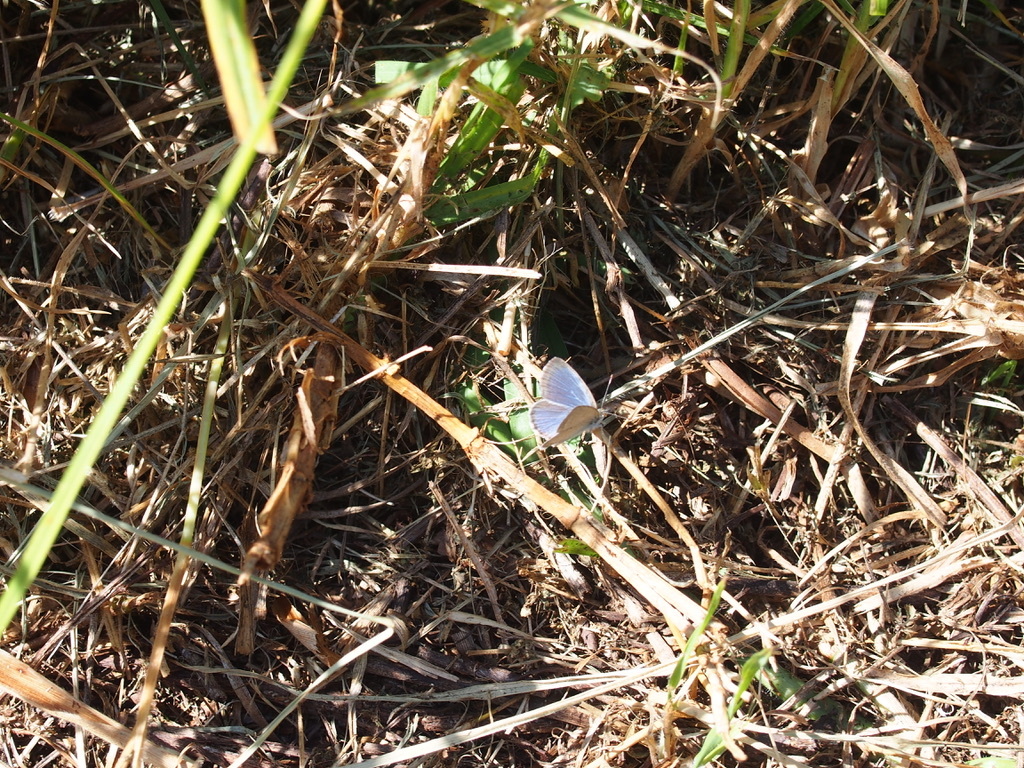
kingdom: Animalia
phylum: Arthropoda
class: Insecta
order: Lepidoptera
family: Lycaenidae
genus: Zizina
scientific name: Zizina otis
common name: Lesser grass blue
